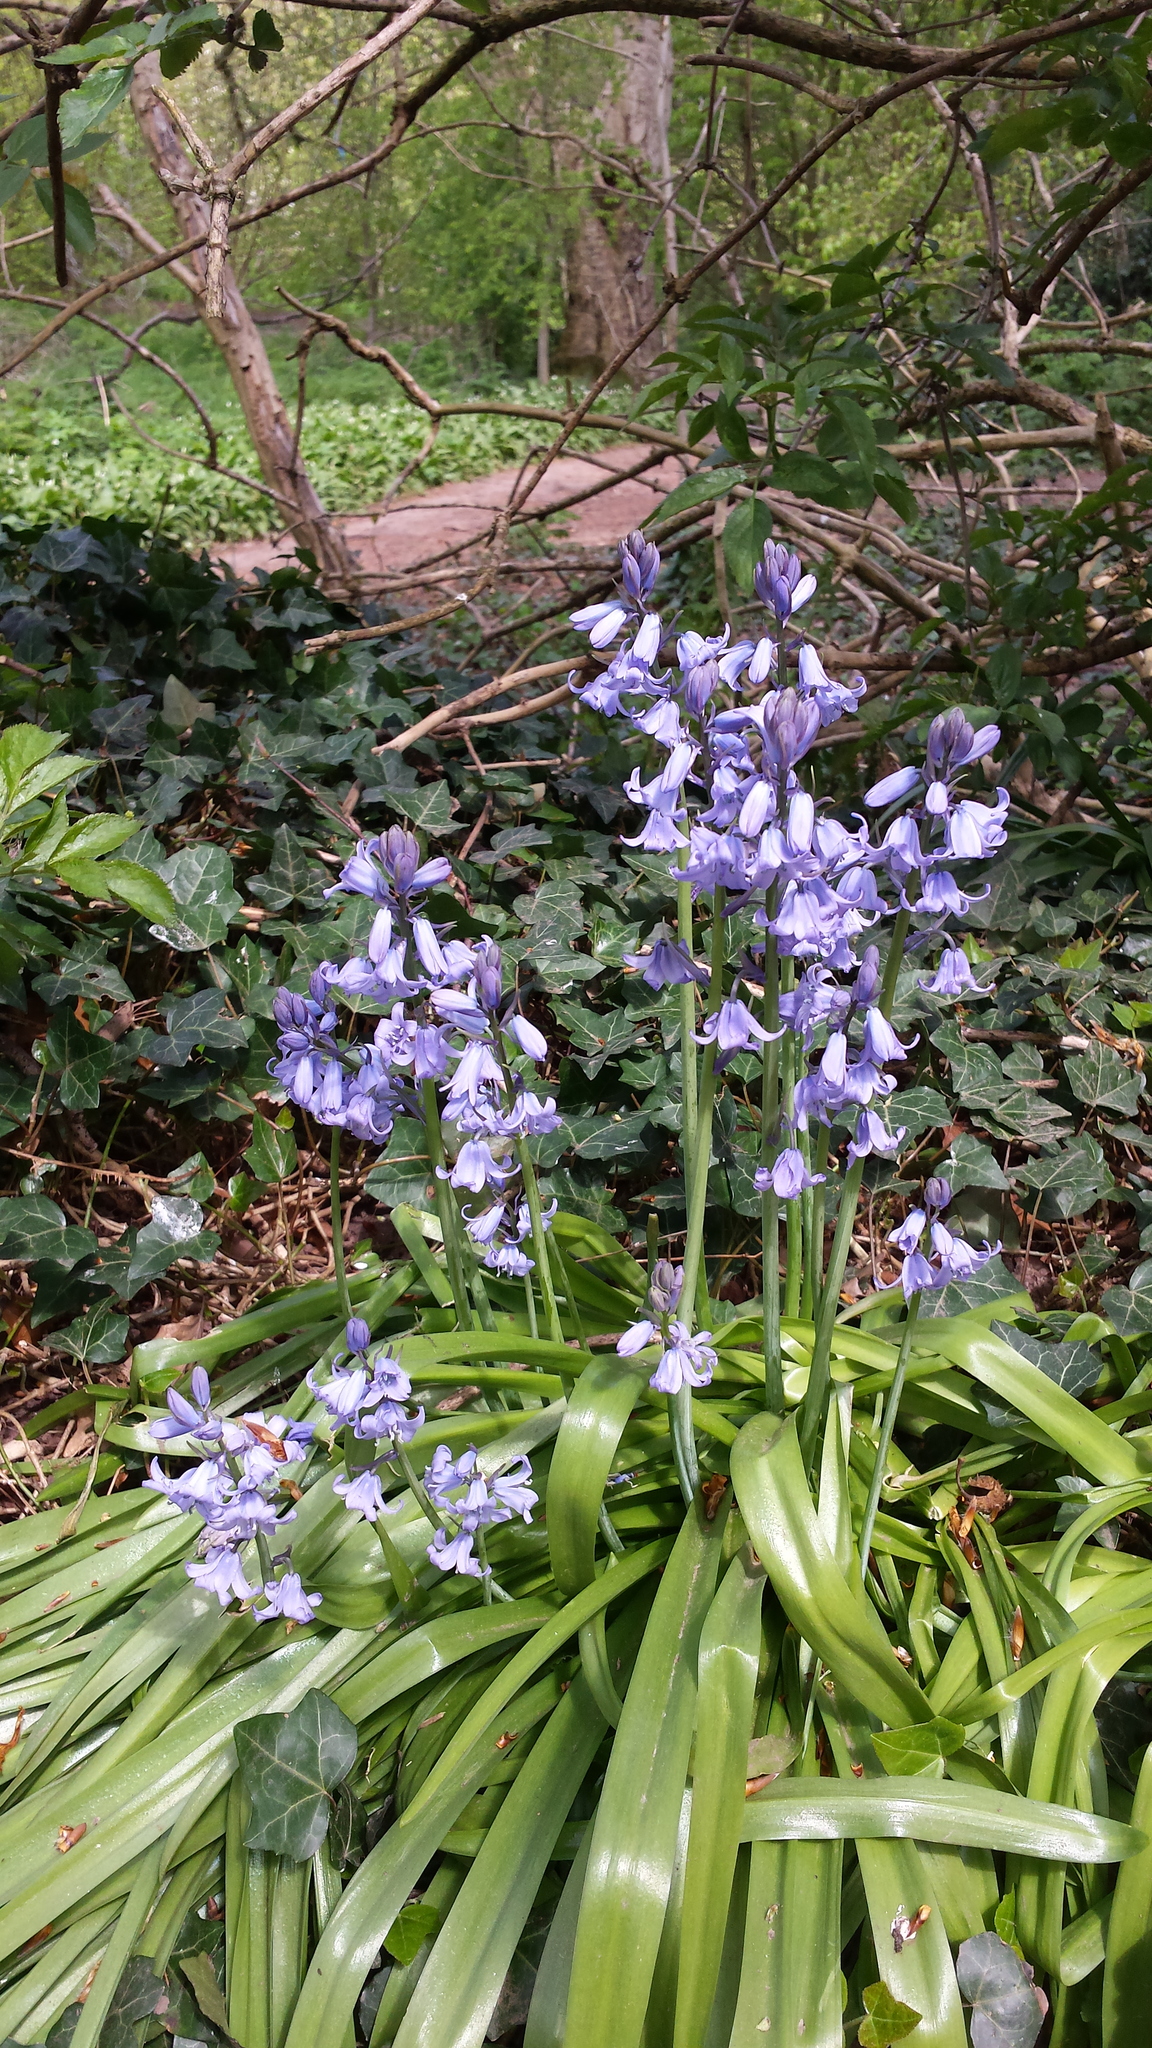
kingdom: Plantae
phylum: Tracheophyta
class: Liliopsida
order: Asparagales
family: Asparagaceae
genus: Hyacinthoides
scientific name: Hyacinthoides massartiana
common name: Hyacinthoides
